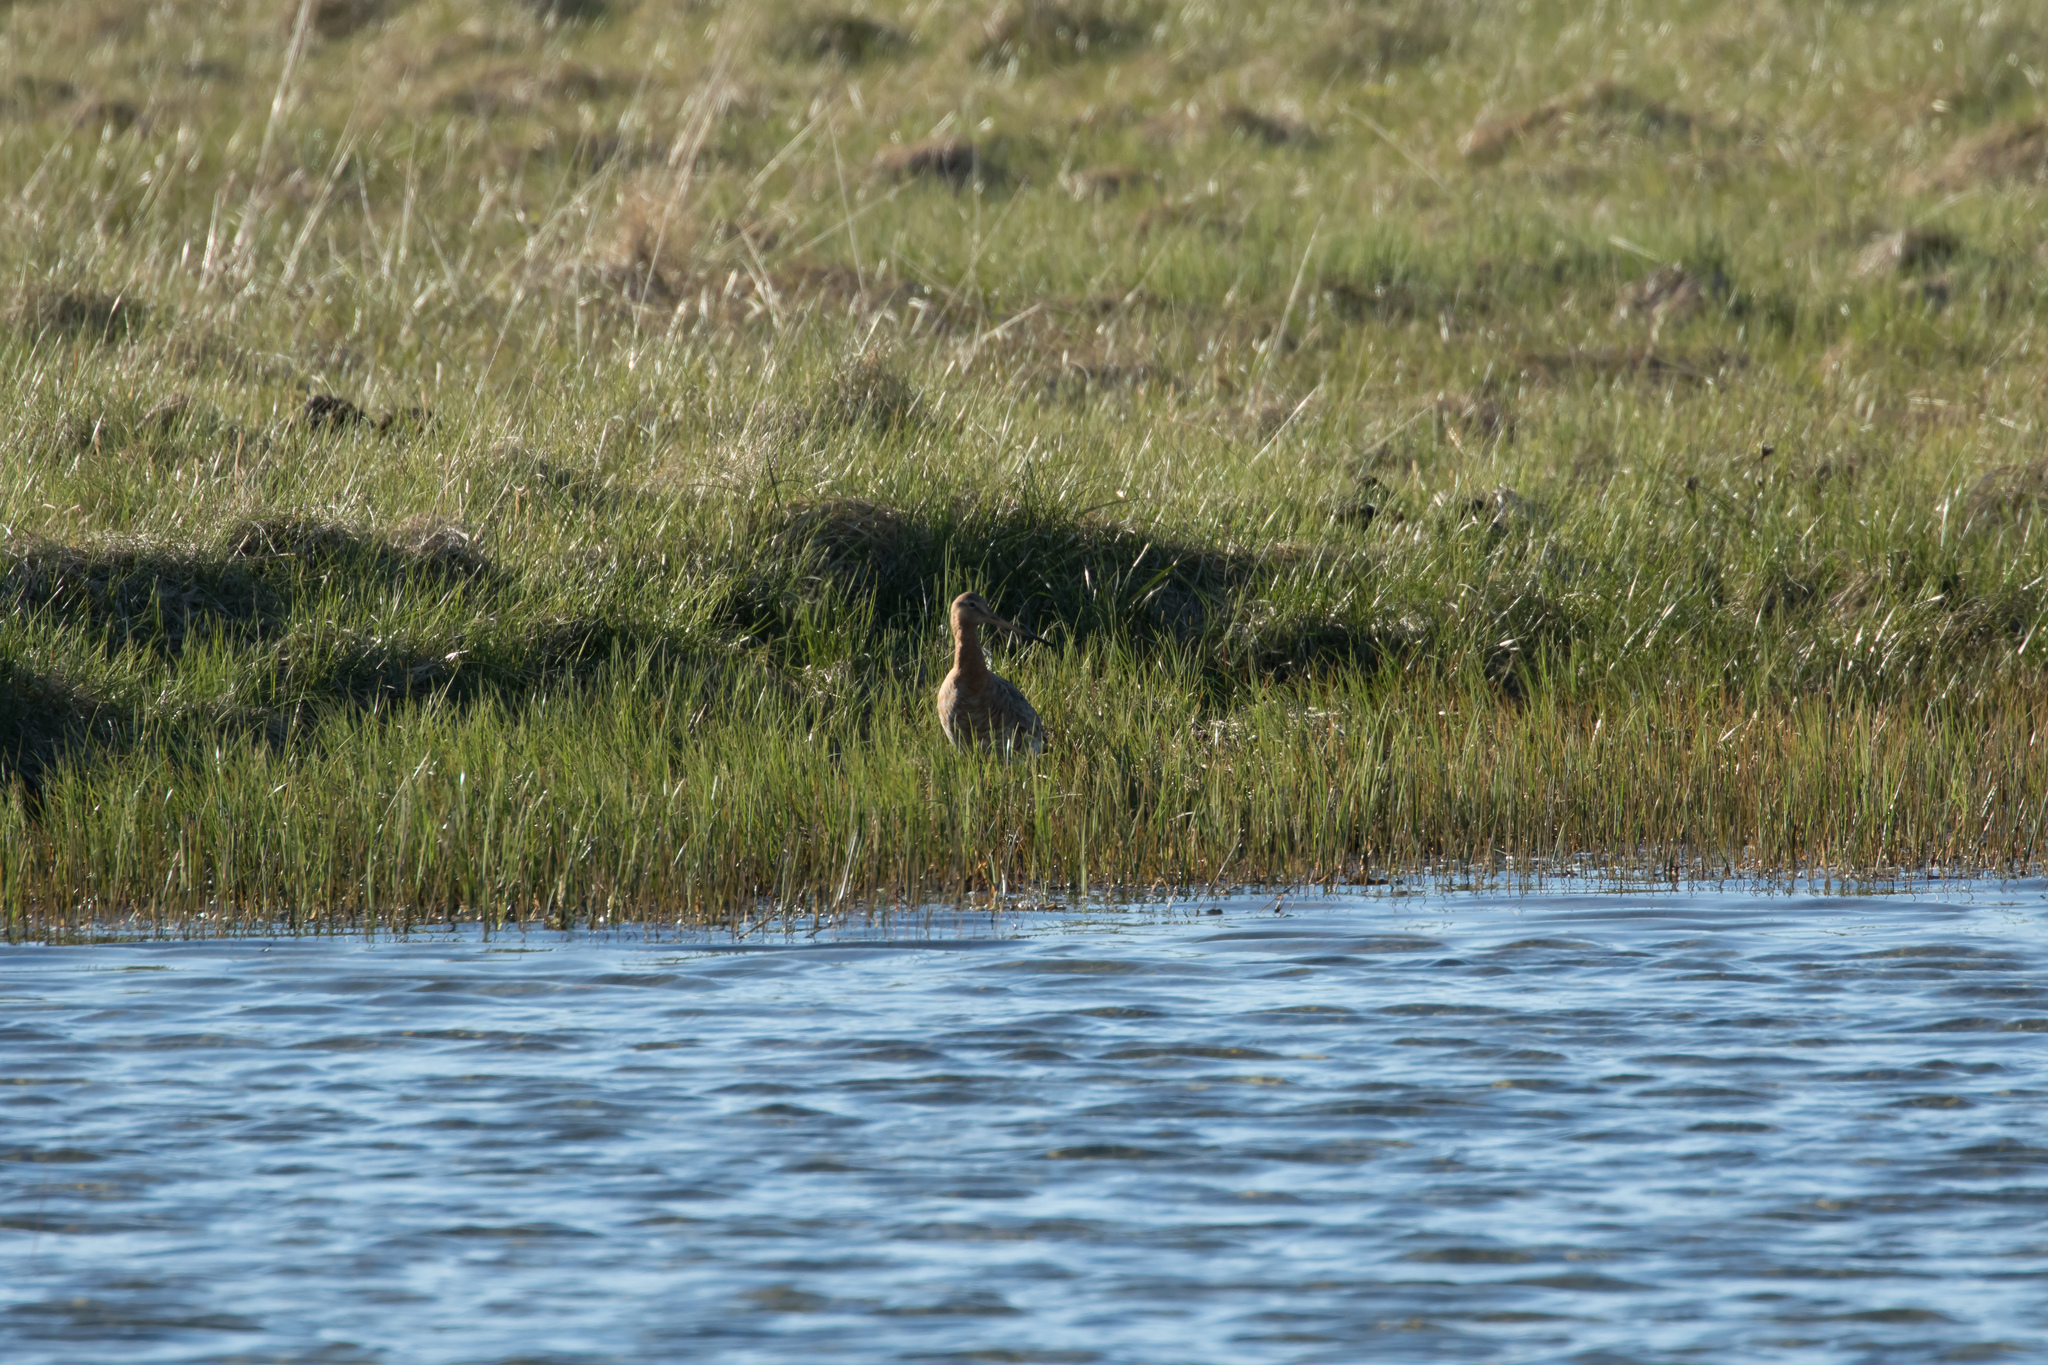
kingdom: Animalia
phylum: Chordata
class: Aves
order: Charadriiformes
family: Scolopacidae
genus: Limosa
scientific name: Limosa limosa
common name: Black-tailed godwit
